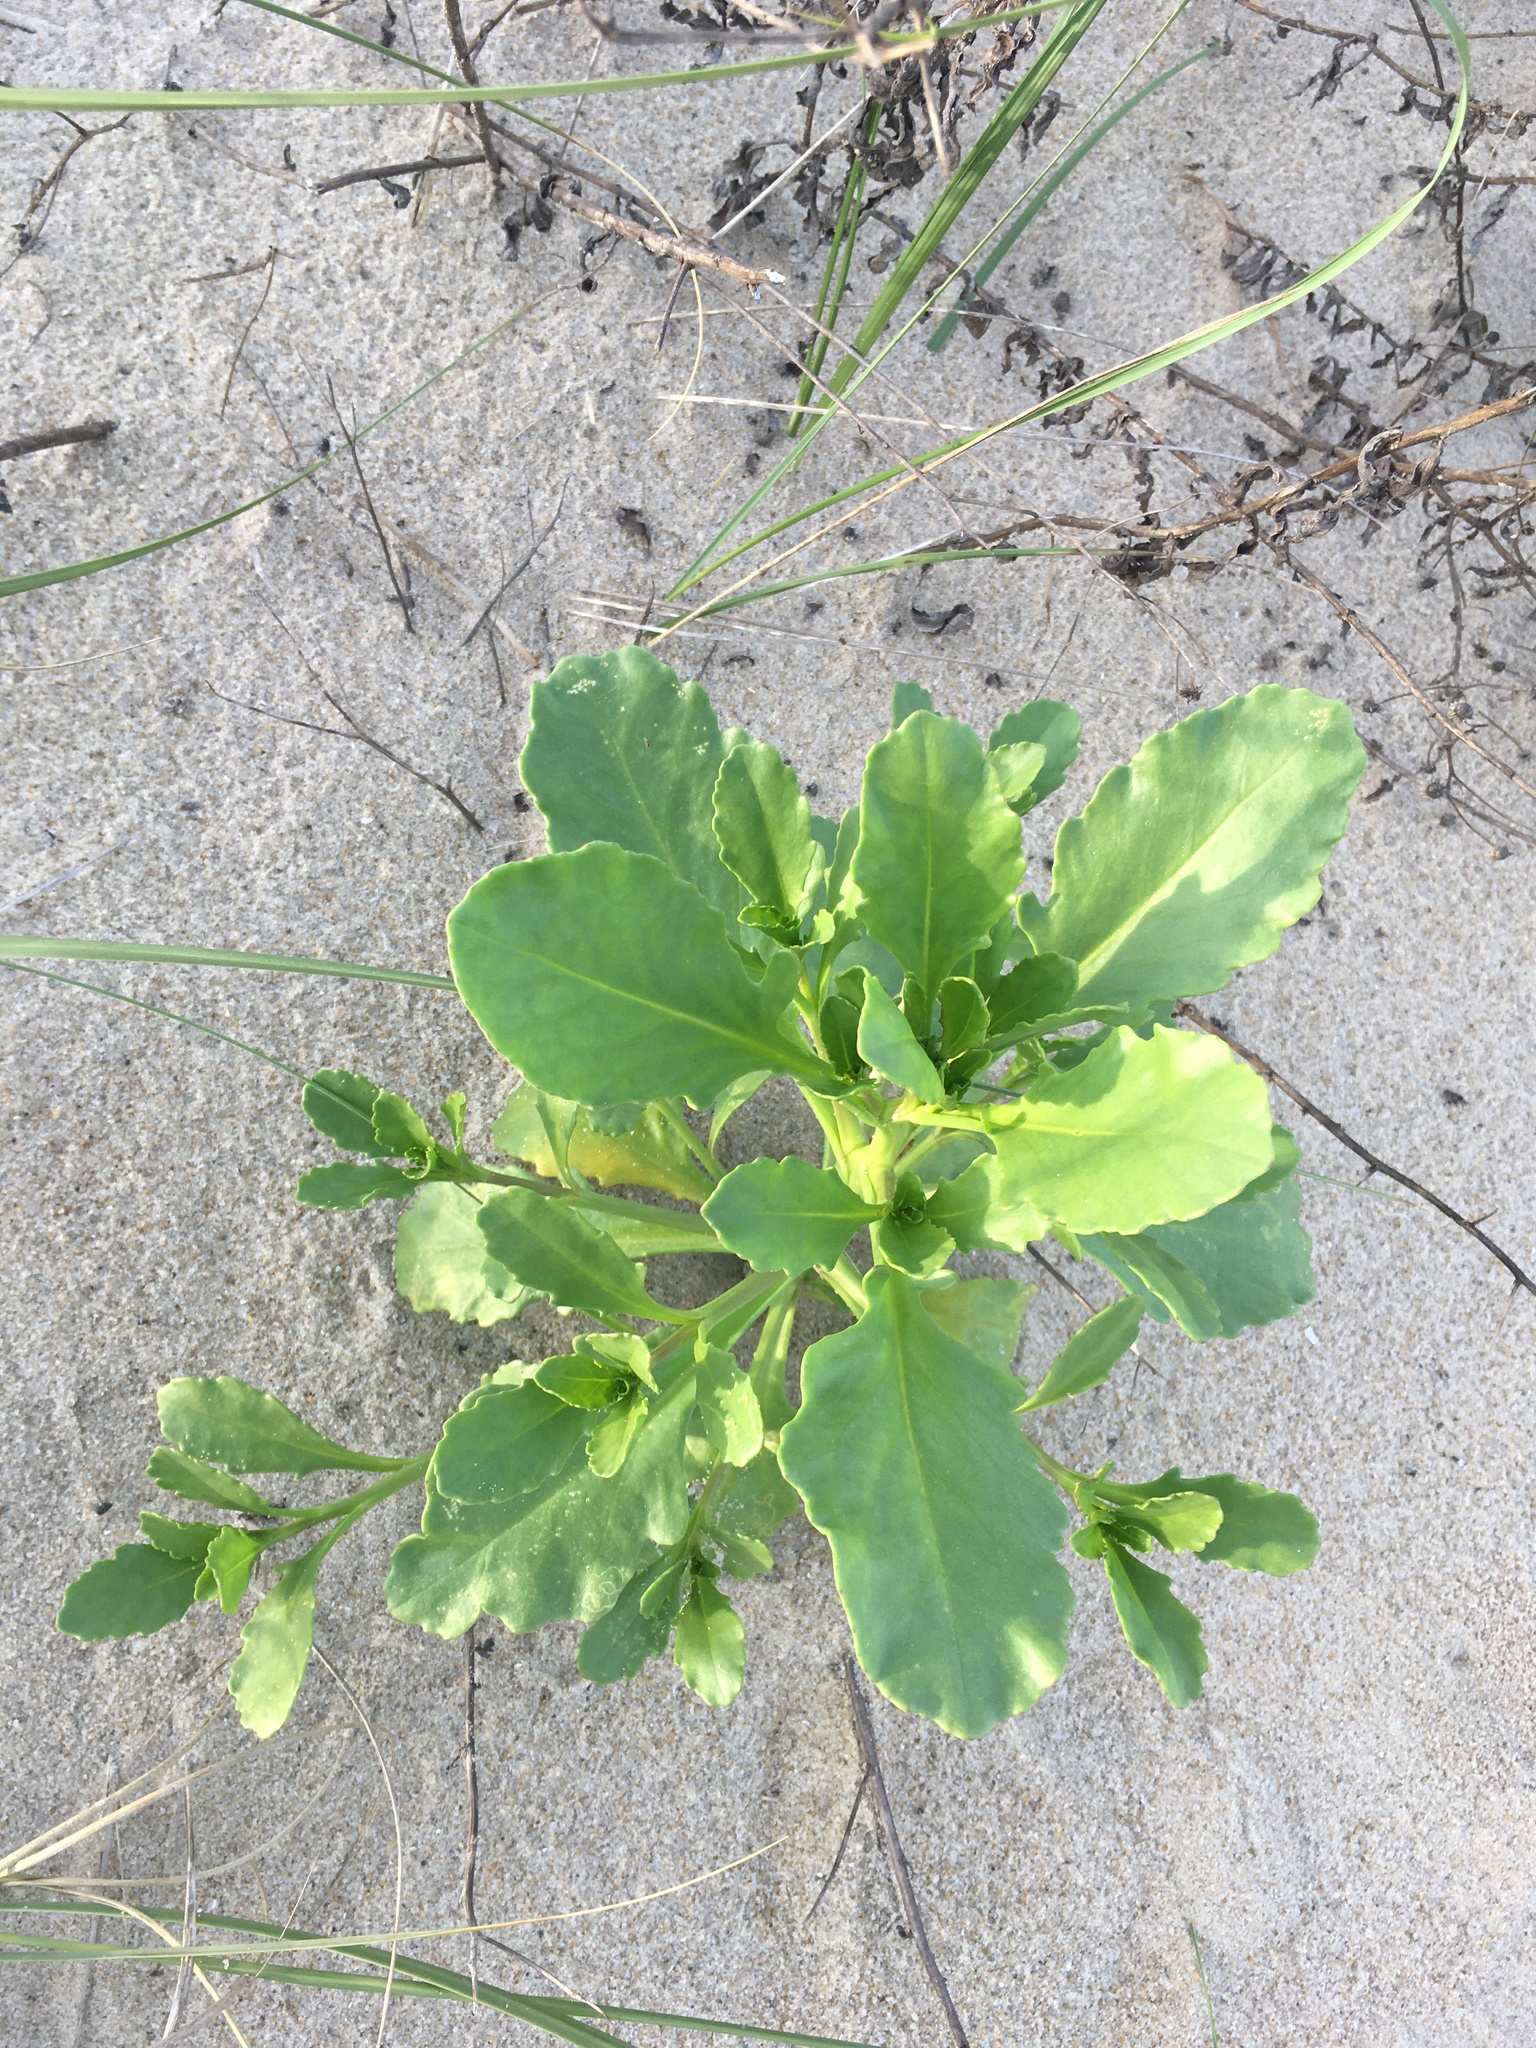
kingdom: Plantae
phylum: Tracheophyta
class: Magnoliopsida
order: Brassicales
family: Brassicaceae
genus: Cakile
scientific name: Cakile edentula
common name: American sea rocket
